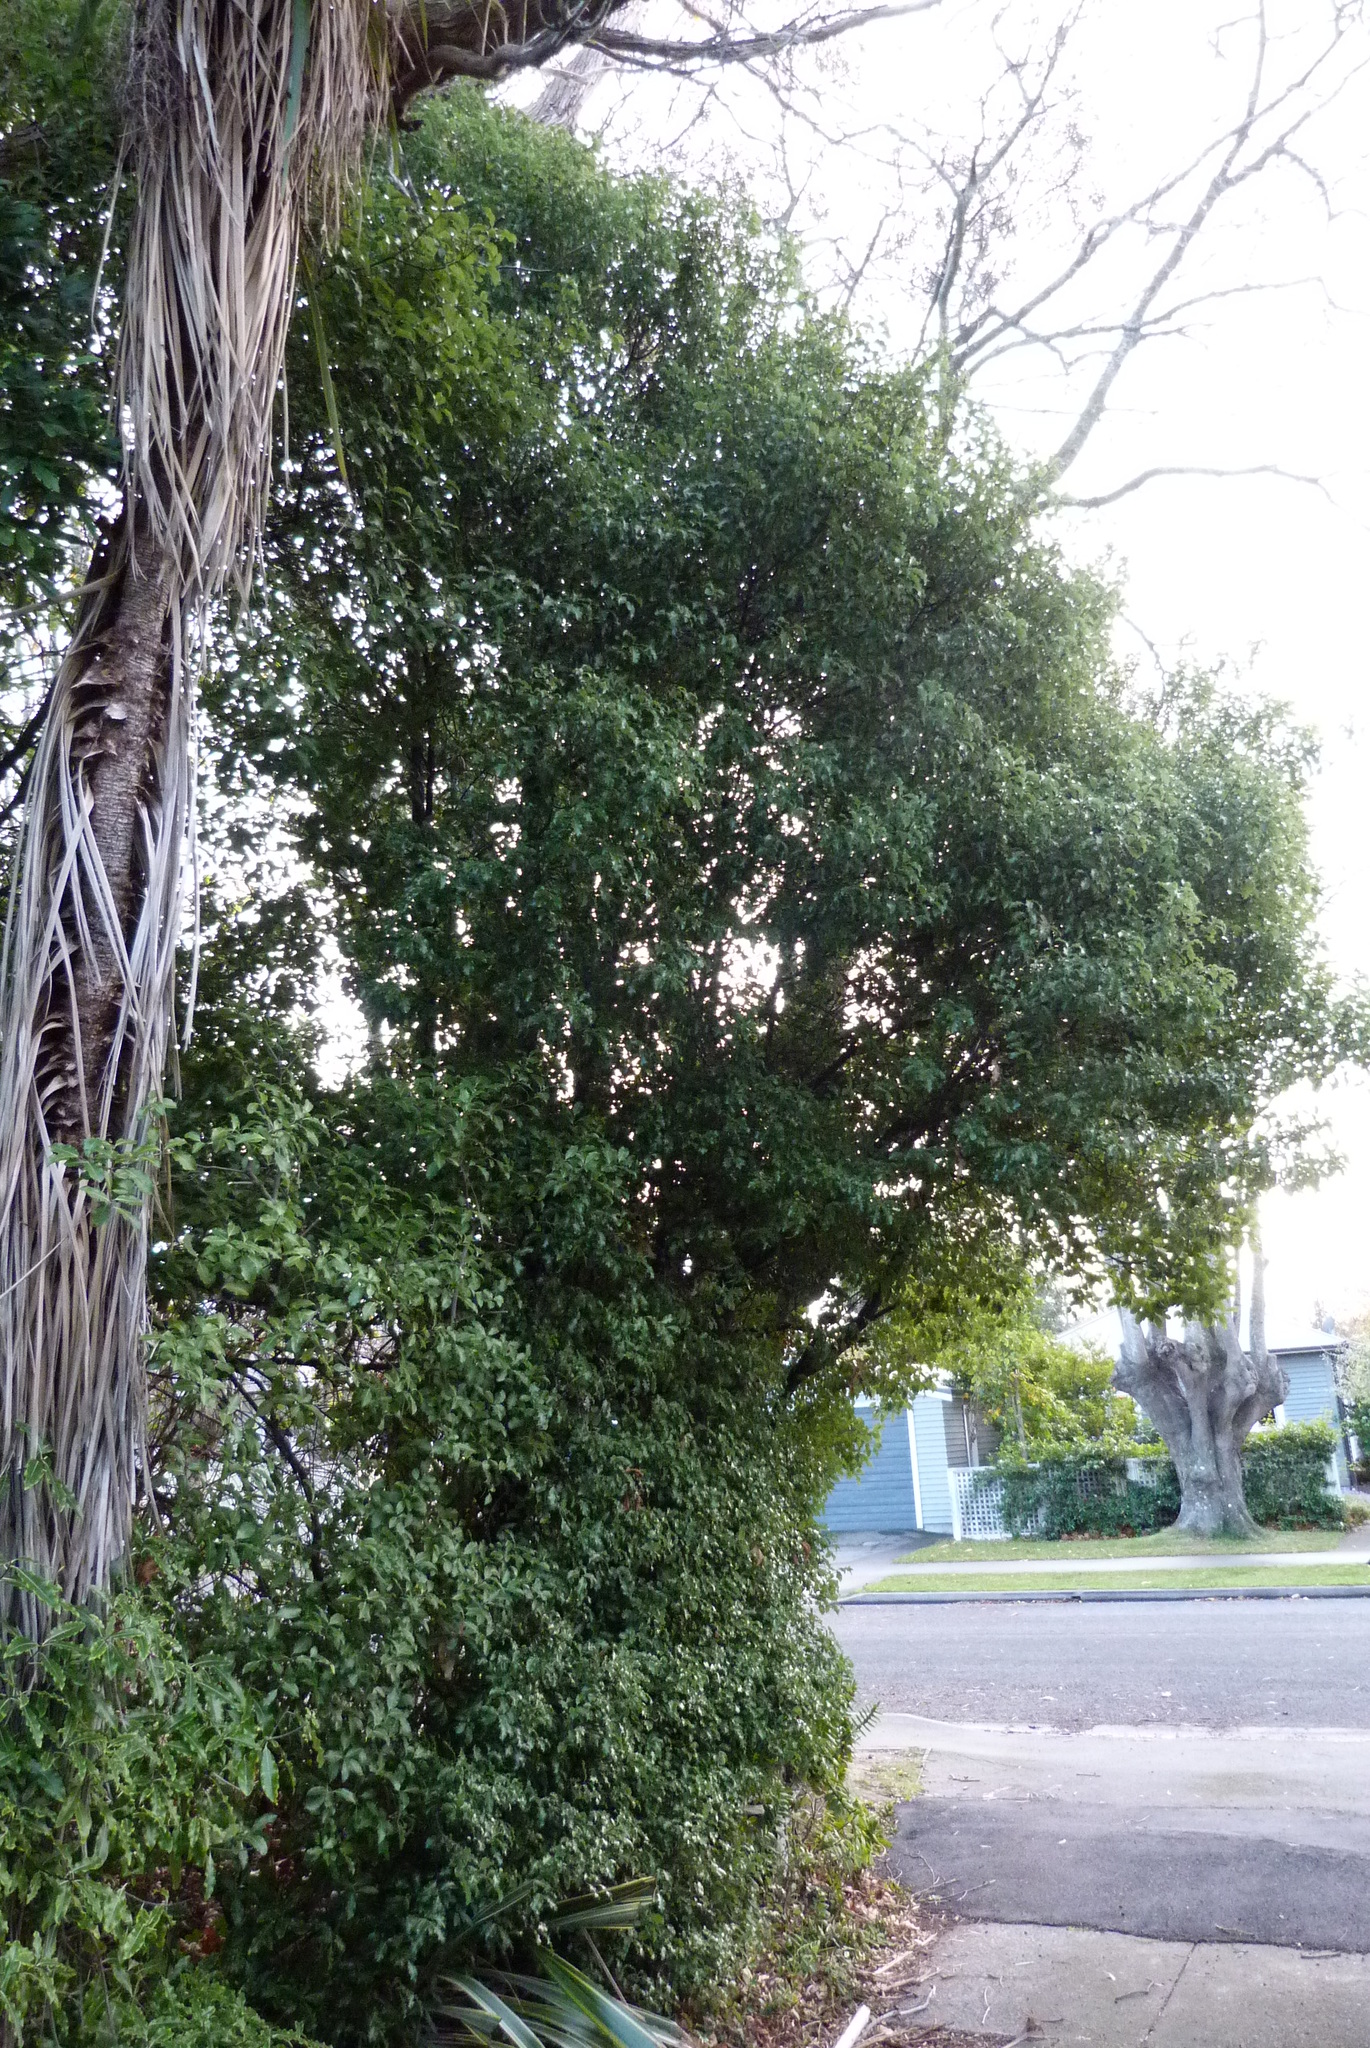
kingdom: Plantae
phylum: Tracheophyta
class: Magnoliopsida
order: Apiales
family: Pittosporaceae
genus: Pittosporum
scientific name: Pittosporum tenuifolium
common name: Kohuhu
